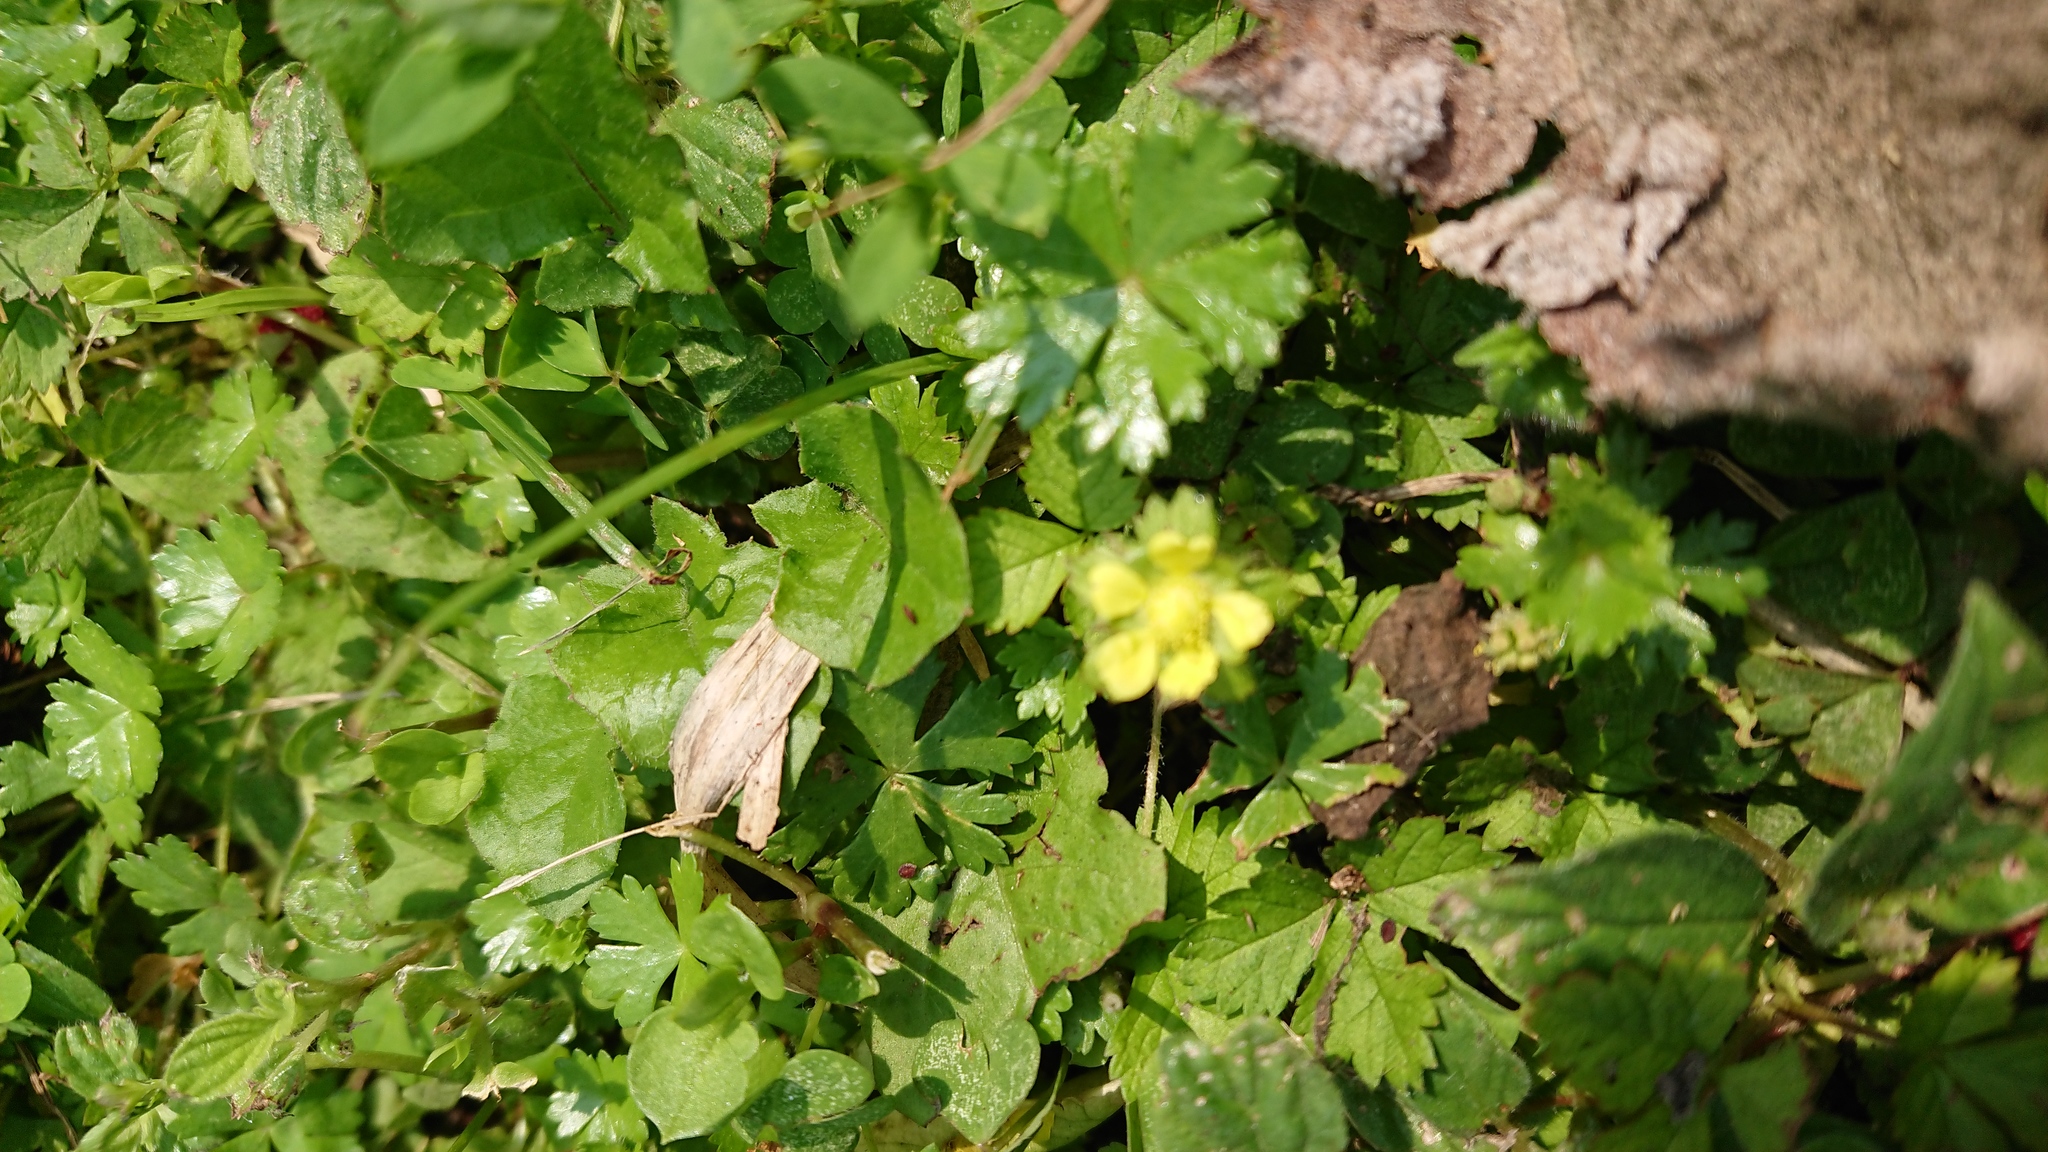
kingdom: Plantae
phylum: Tracheophyta
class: Magnoliopsida
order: Rosales
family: Rosaceae
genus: Potentilla
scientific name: Potentilla wallichiana
